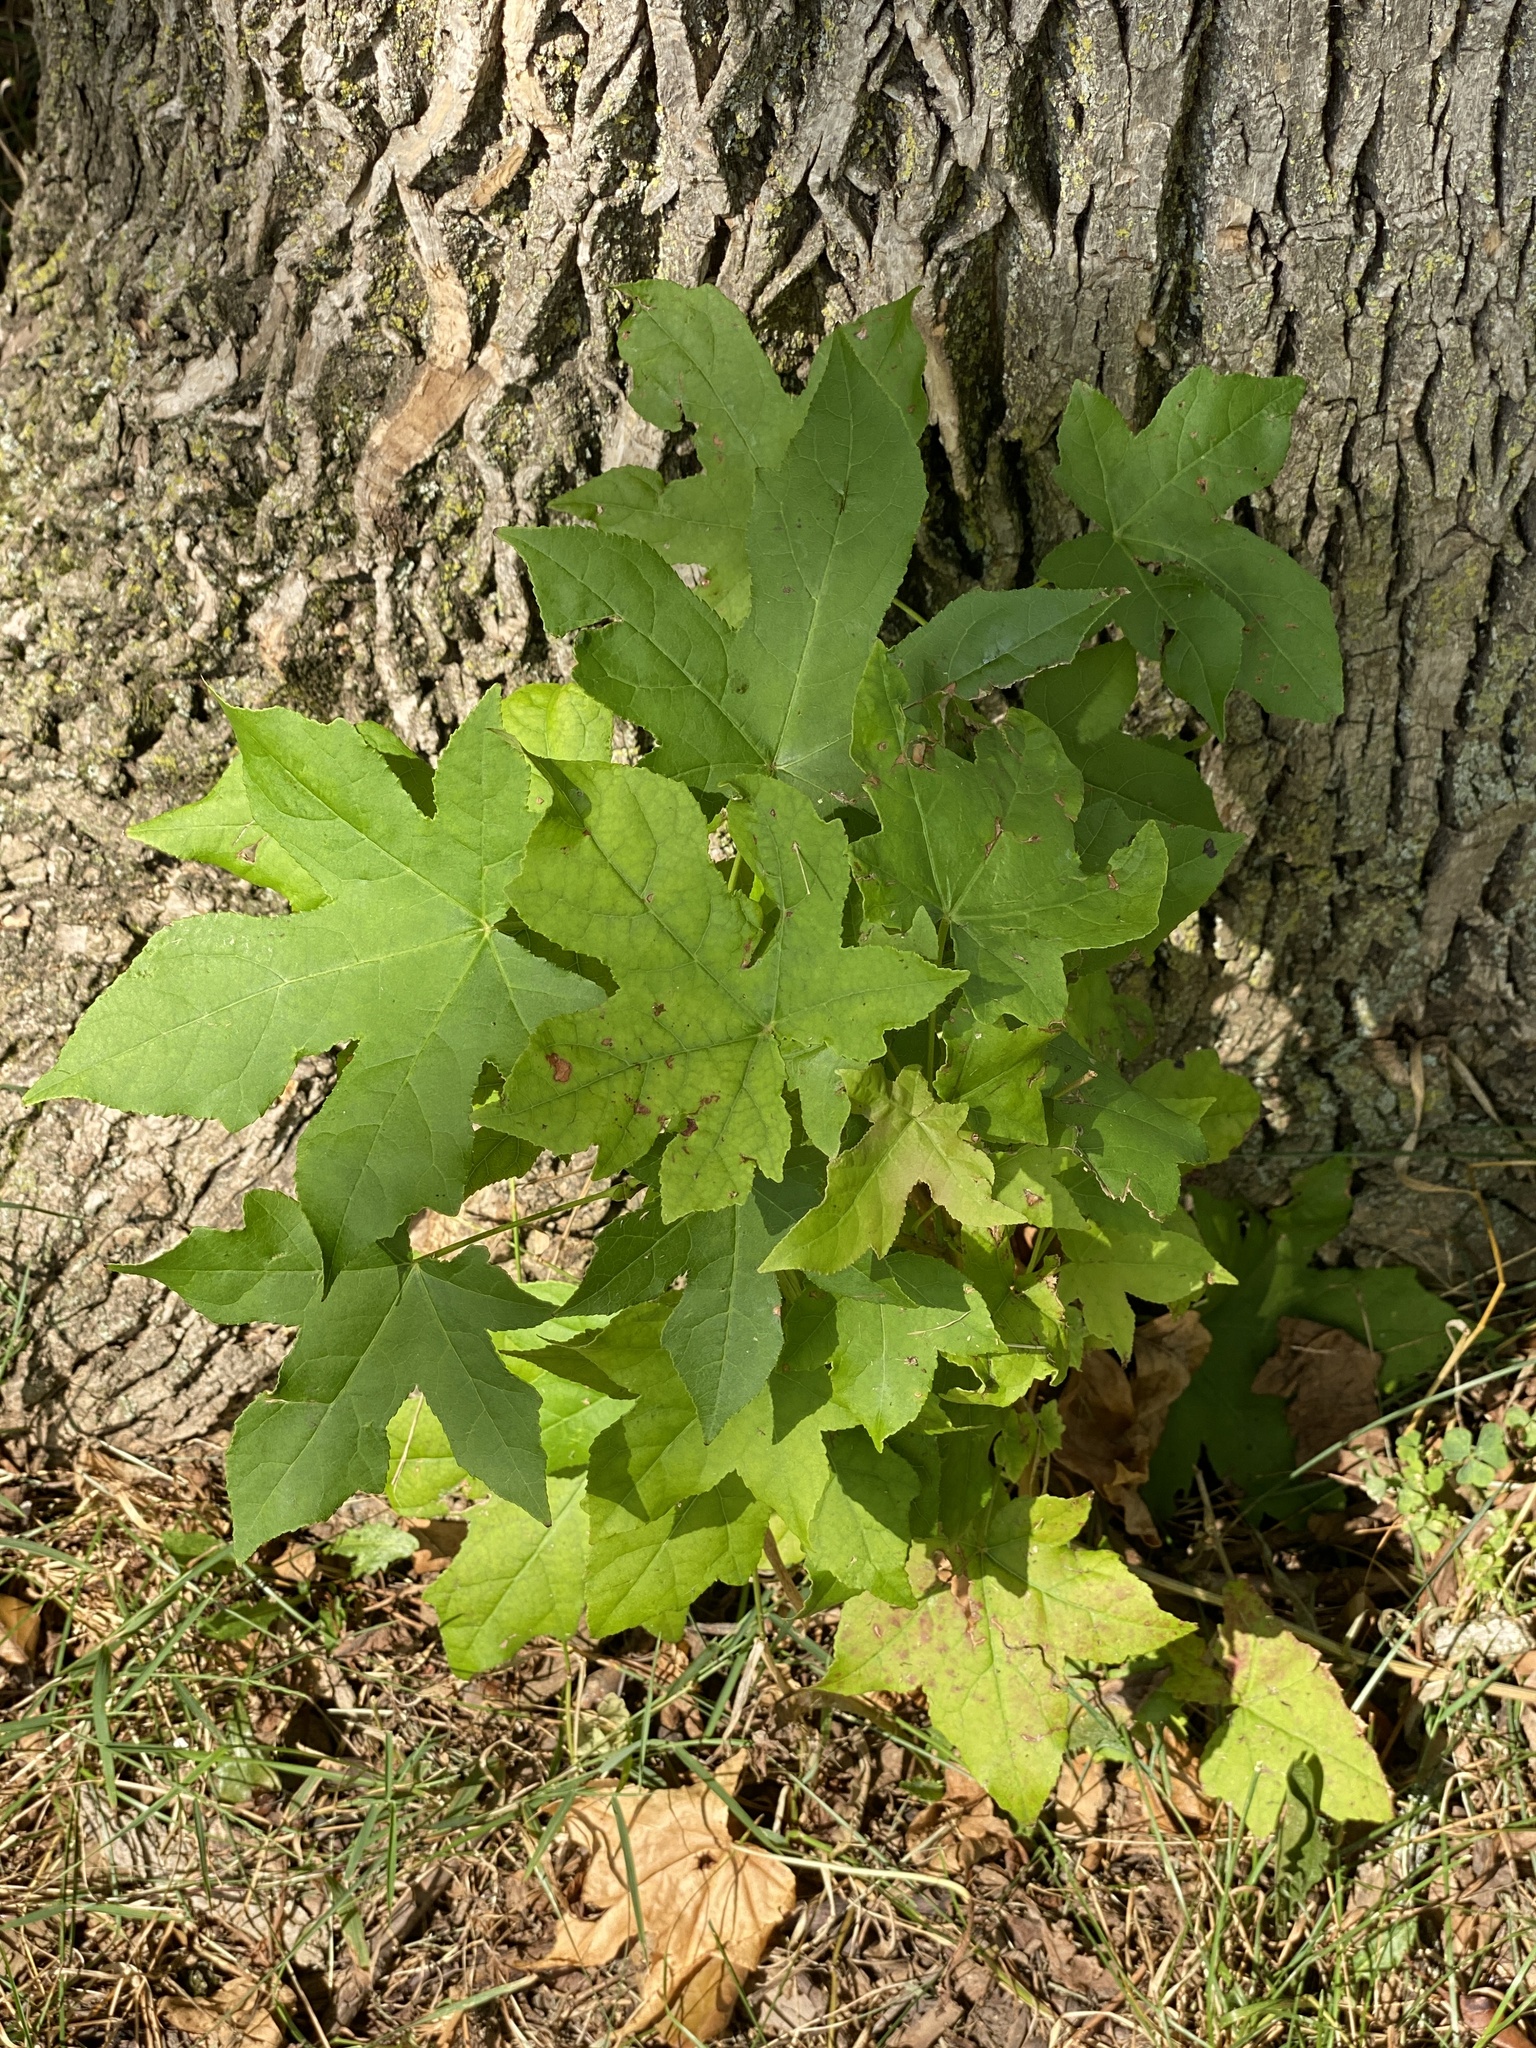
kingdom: Plantae
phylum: Tracheophyta
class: Magnoliopsida
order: Saxifragales
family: Altingiaceae
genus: Liquidambar
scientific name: Liquidambar styraciflua
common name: Sweet gum
